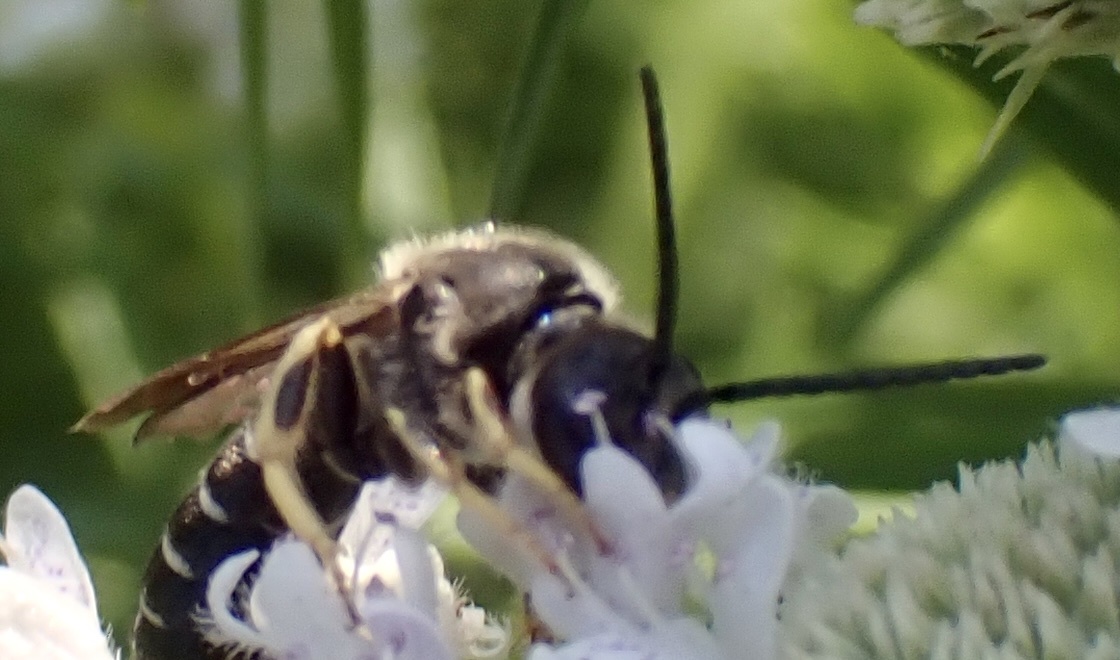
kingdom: Animalia
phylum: Arthropoda
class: Insecta
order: Hymenoptera
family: Halictidae
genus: Halictus
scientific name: Halictus rubicundus
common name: Orange-legged furrow bee
